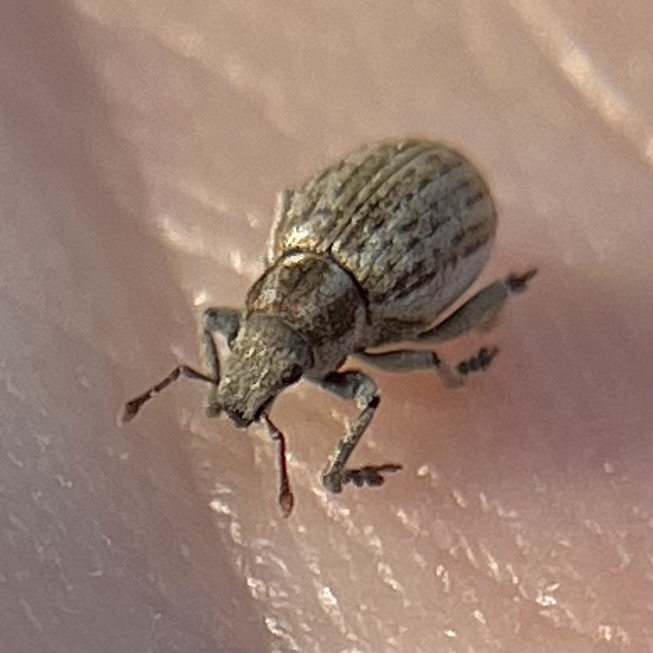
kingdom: Animalia
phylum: Arthropoda
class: Insecta
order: Coleoptera
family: Curculionidae
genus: Philopedon
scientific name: Philopedon plagiatum
